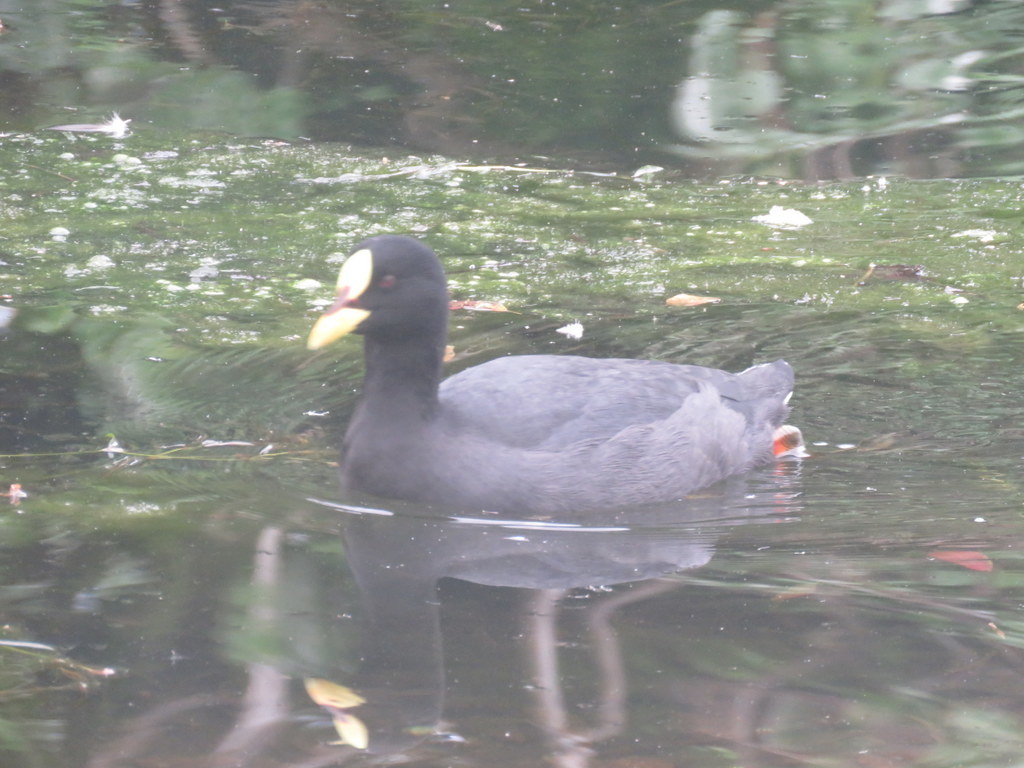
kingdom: Animalia
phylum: Chordata
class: Aves
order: Gruiformes
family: Rallidae
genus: Fulica
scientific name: Fulica armillata
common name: Red-gartered coot
